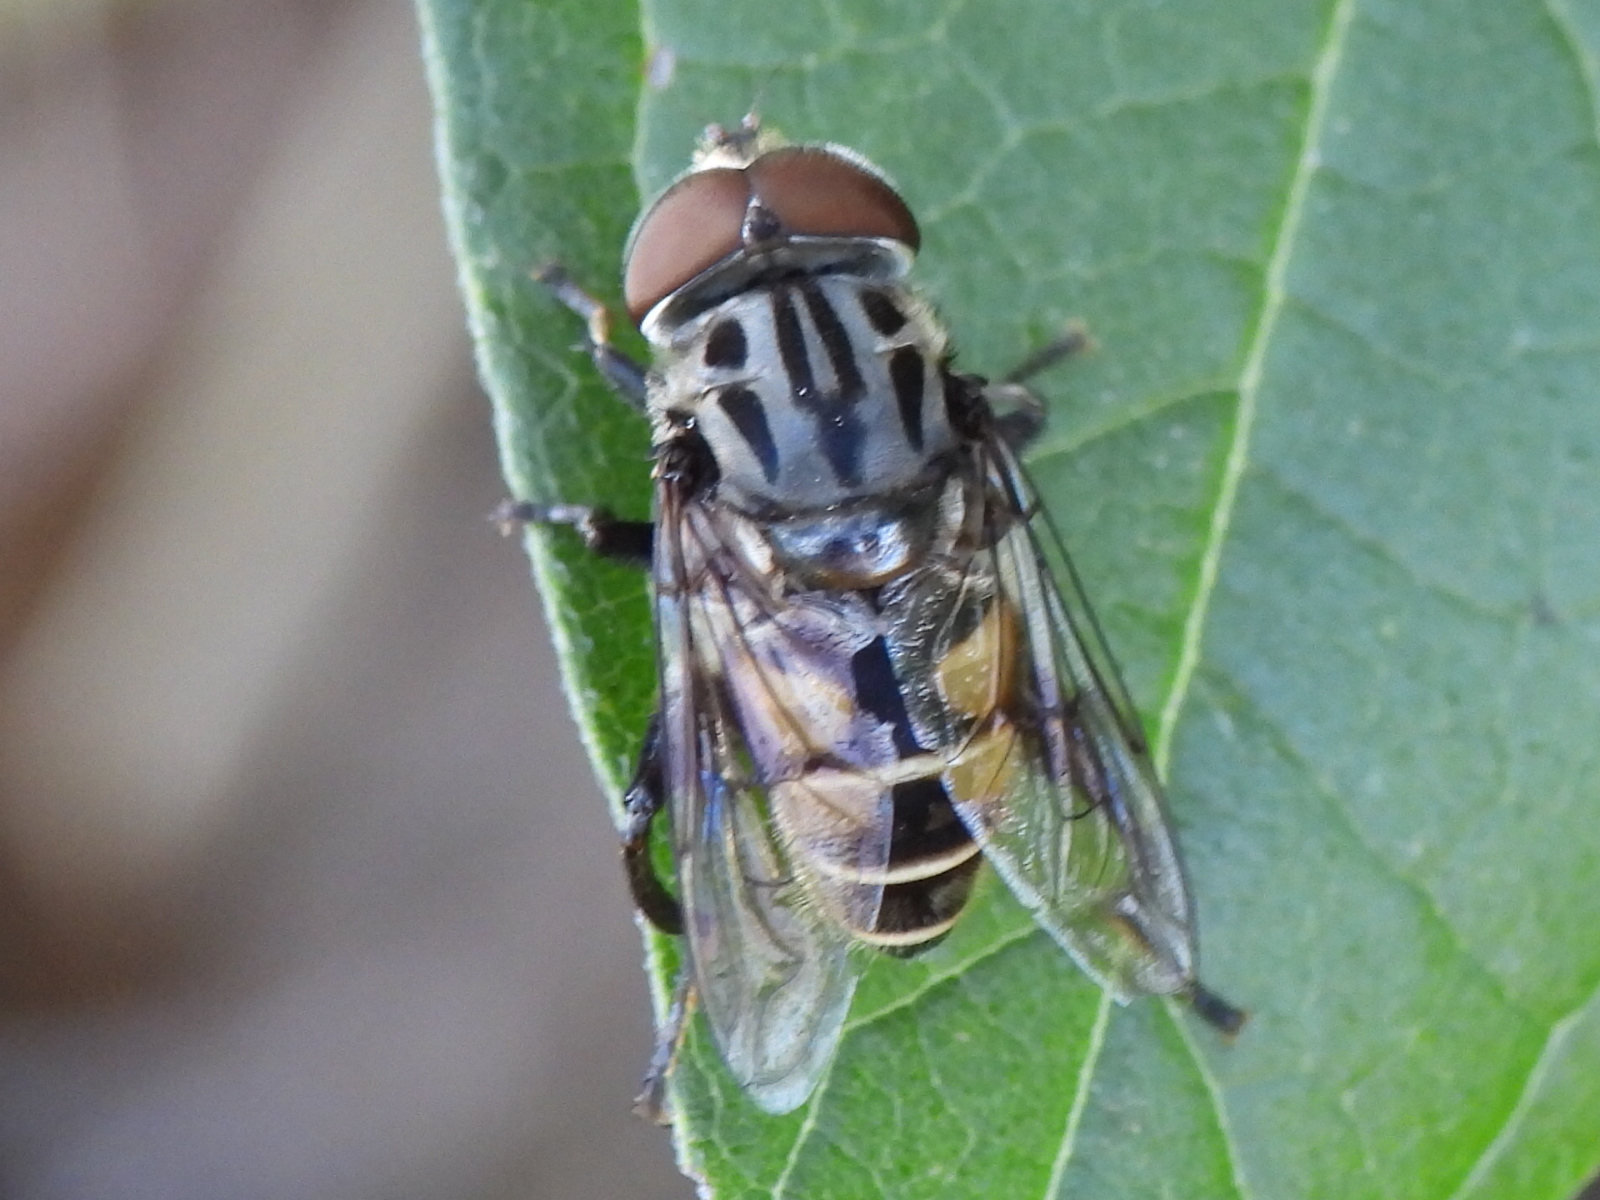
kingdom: Animalia
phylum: Arthropoda
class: Insecta
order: Diptera
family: Syrphidae
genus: Palpada
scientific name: Palpada furcata
